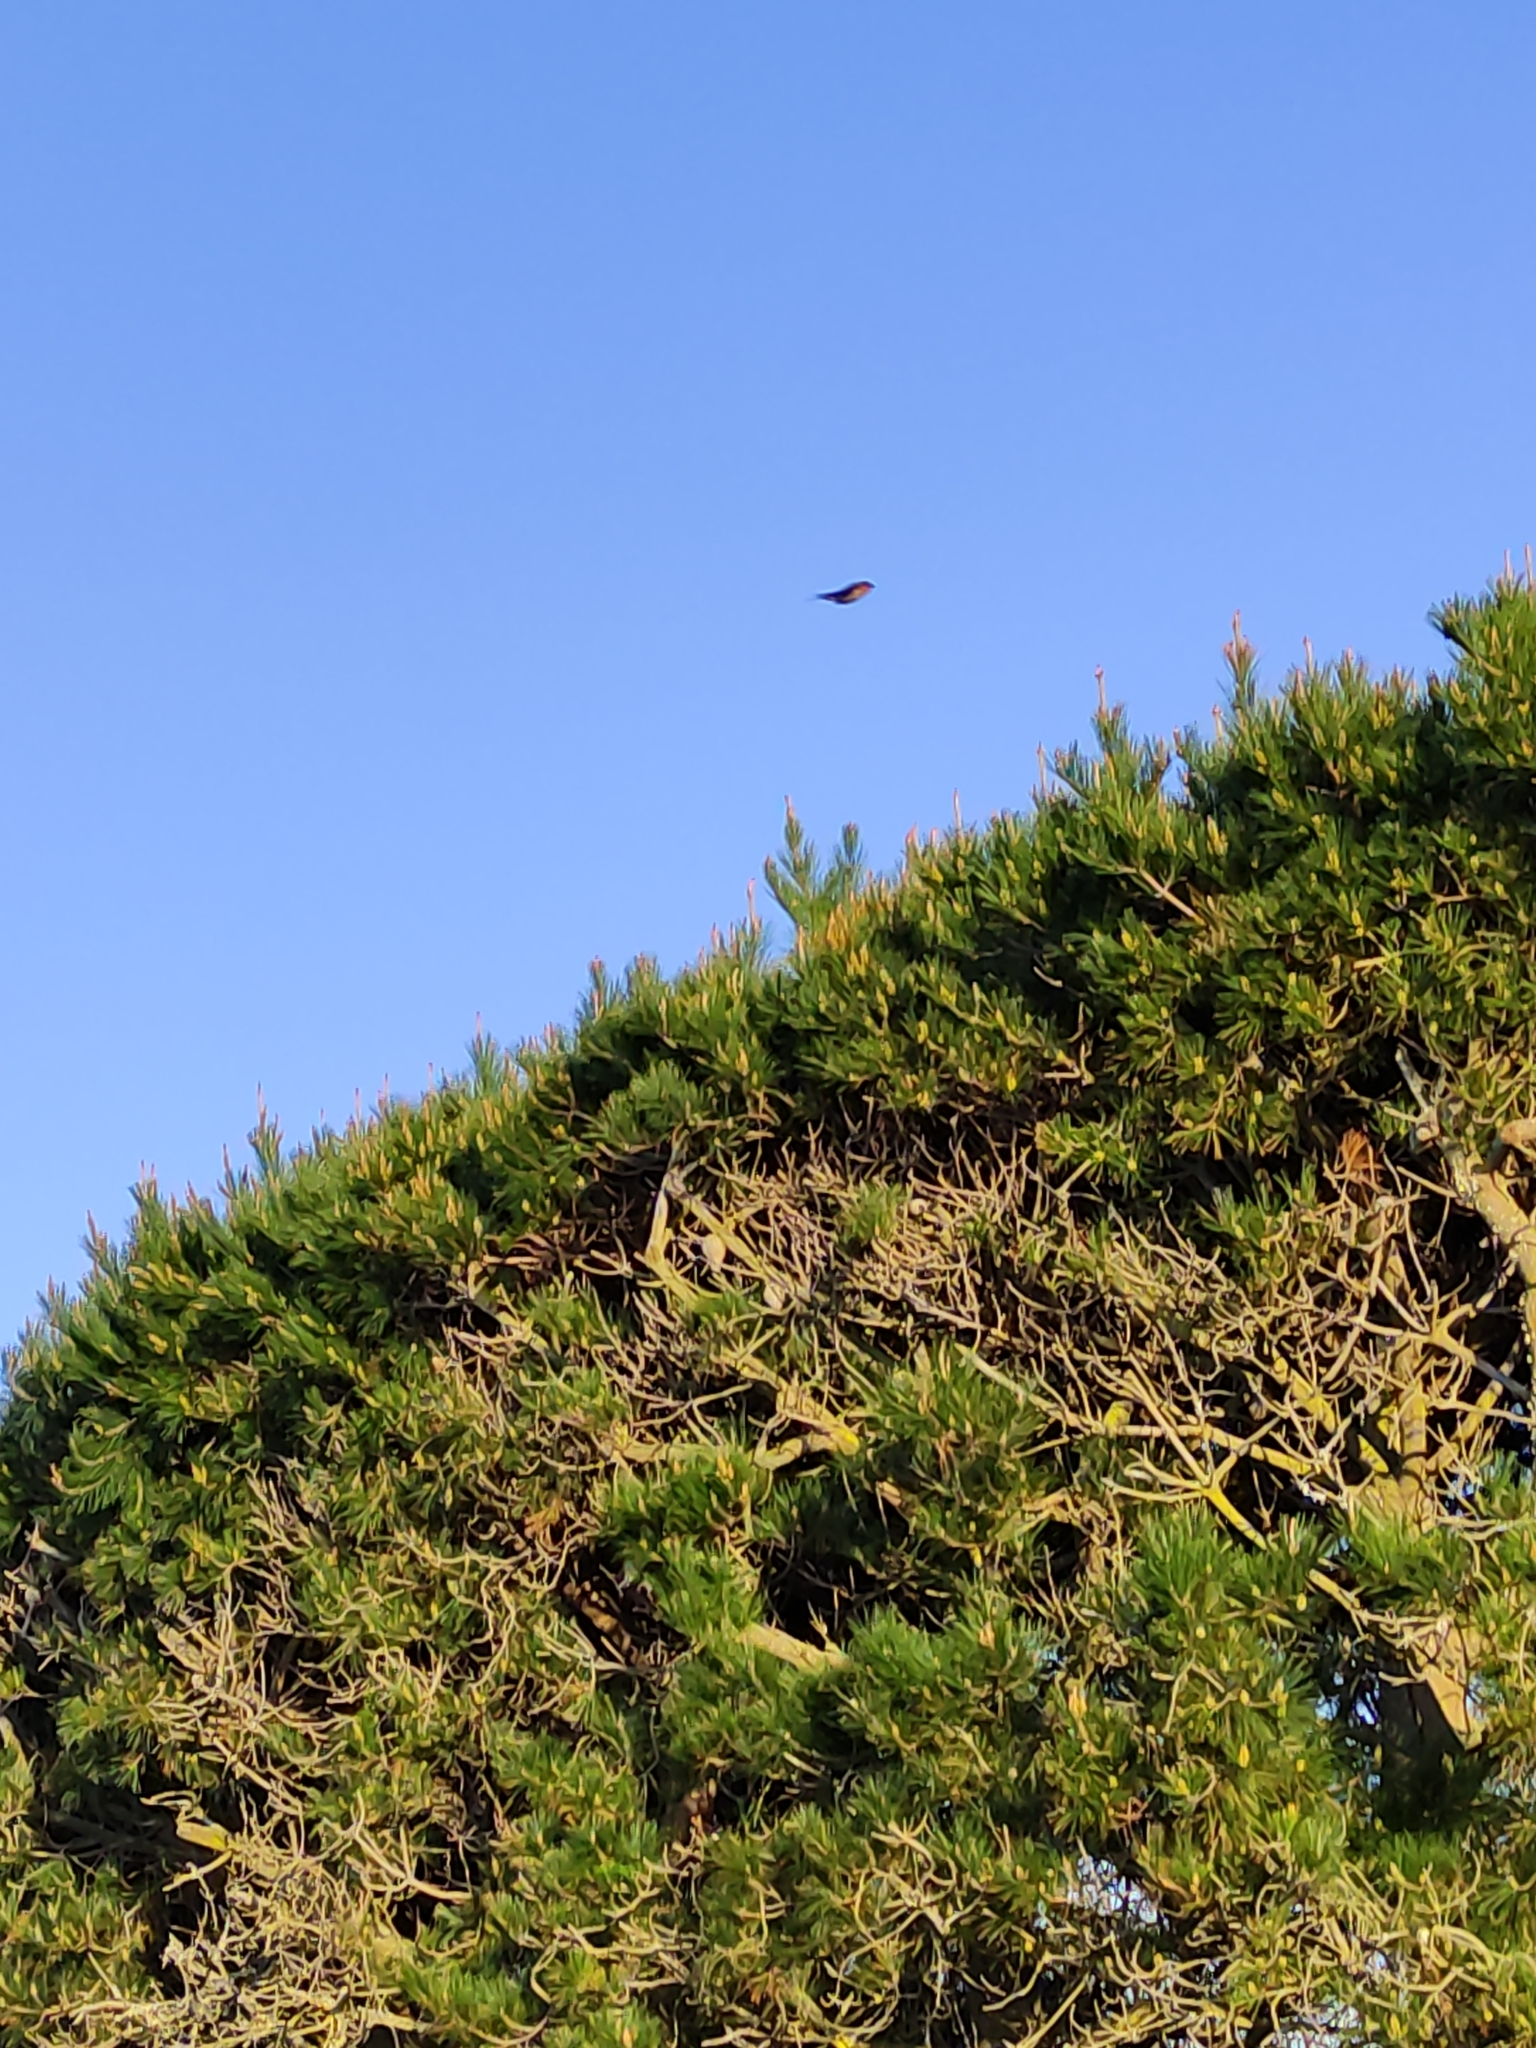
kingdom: Animalia
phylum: Chordata
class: Aves
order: Passeriformes
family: Hirundinidae
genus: Hirundo
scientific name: Hirundo neoxena
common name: Welcome swallow
